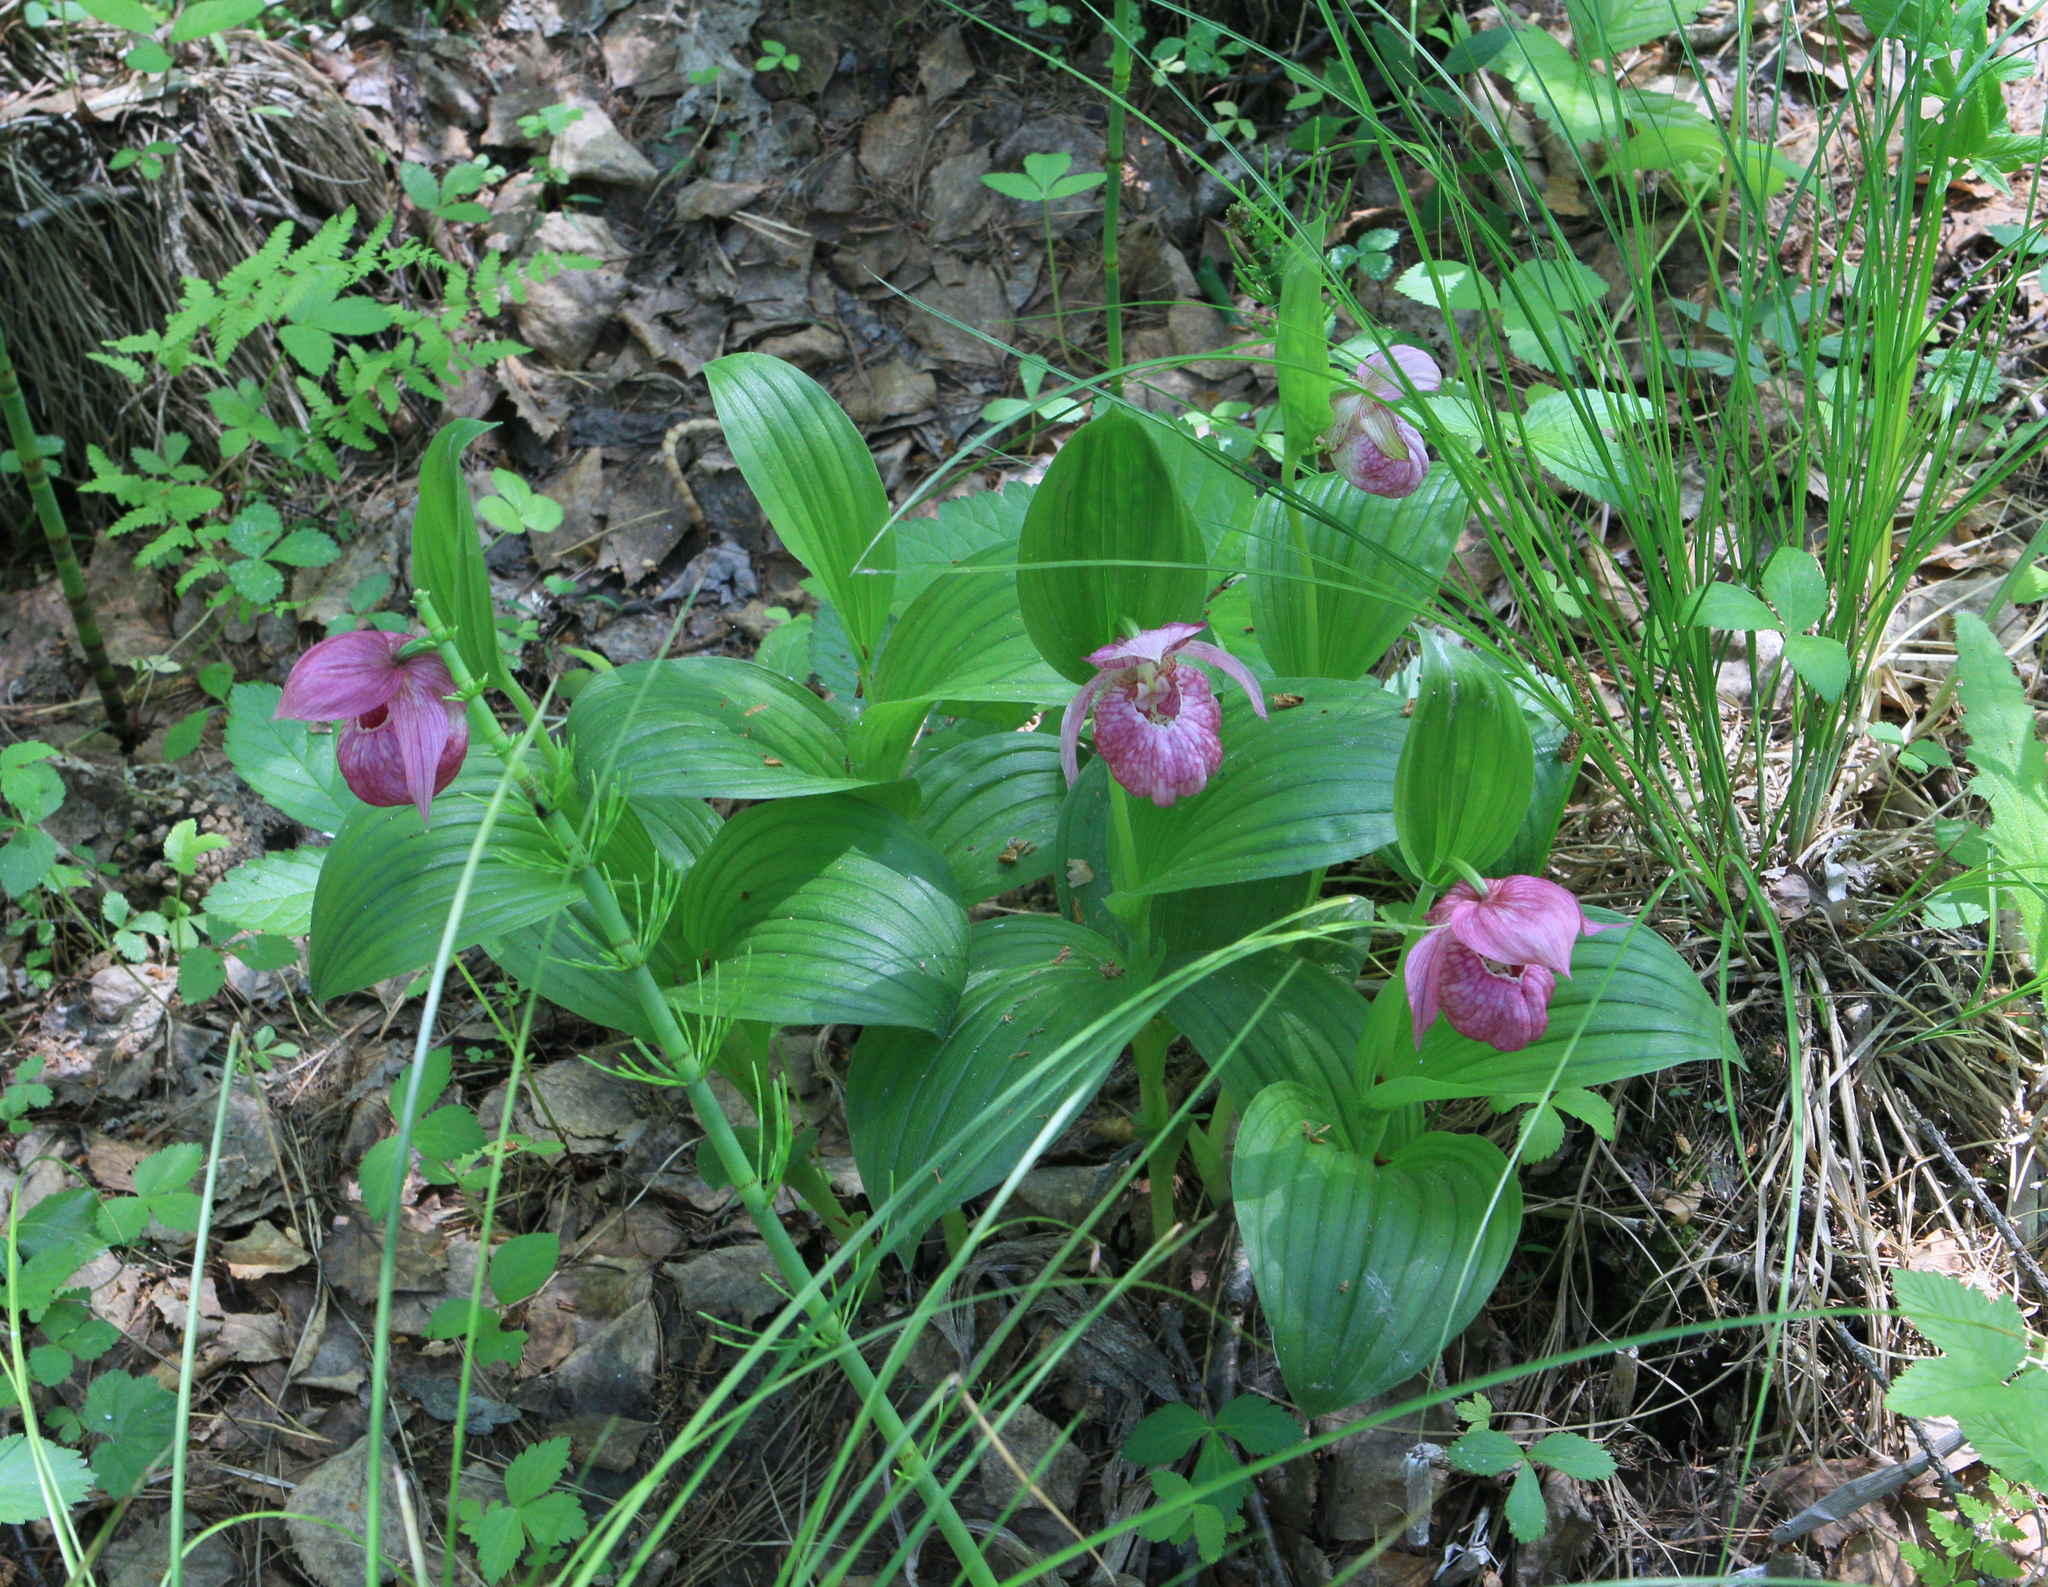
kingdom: Plantae
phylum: Tracheophyta
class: Liliopsida
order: Asparagales
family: Orchidaceae
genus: Cypripedium
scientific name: Cypripedium macranthos
